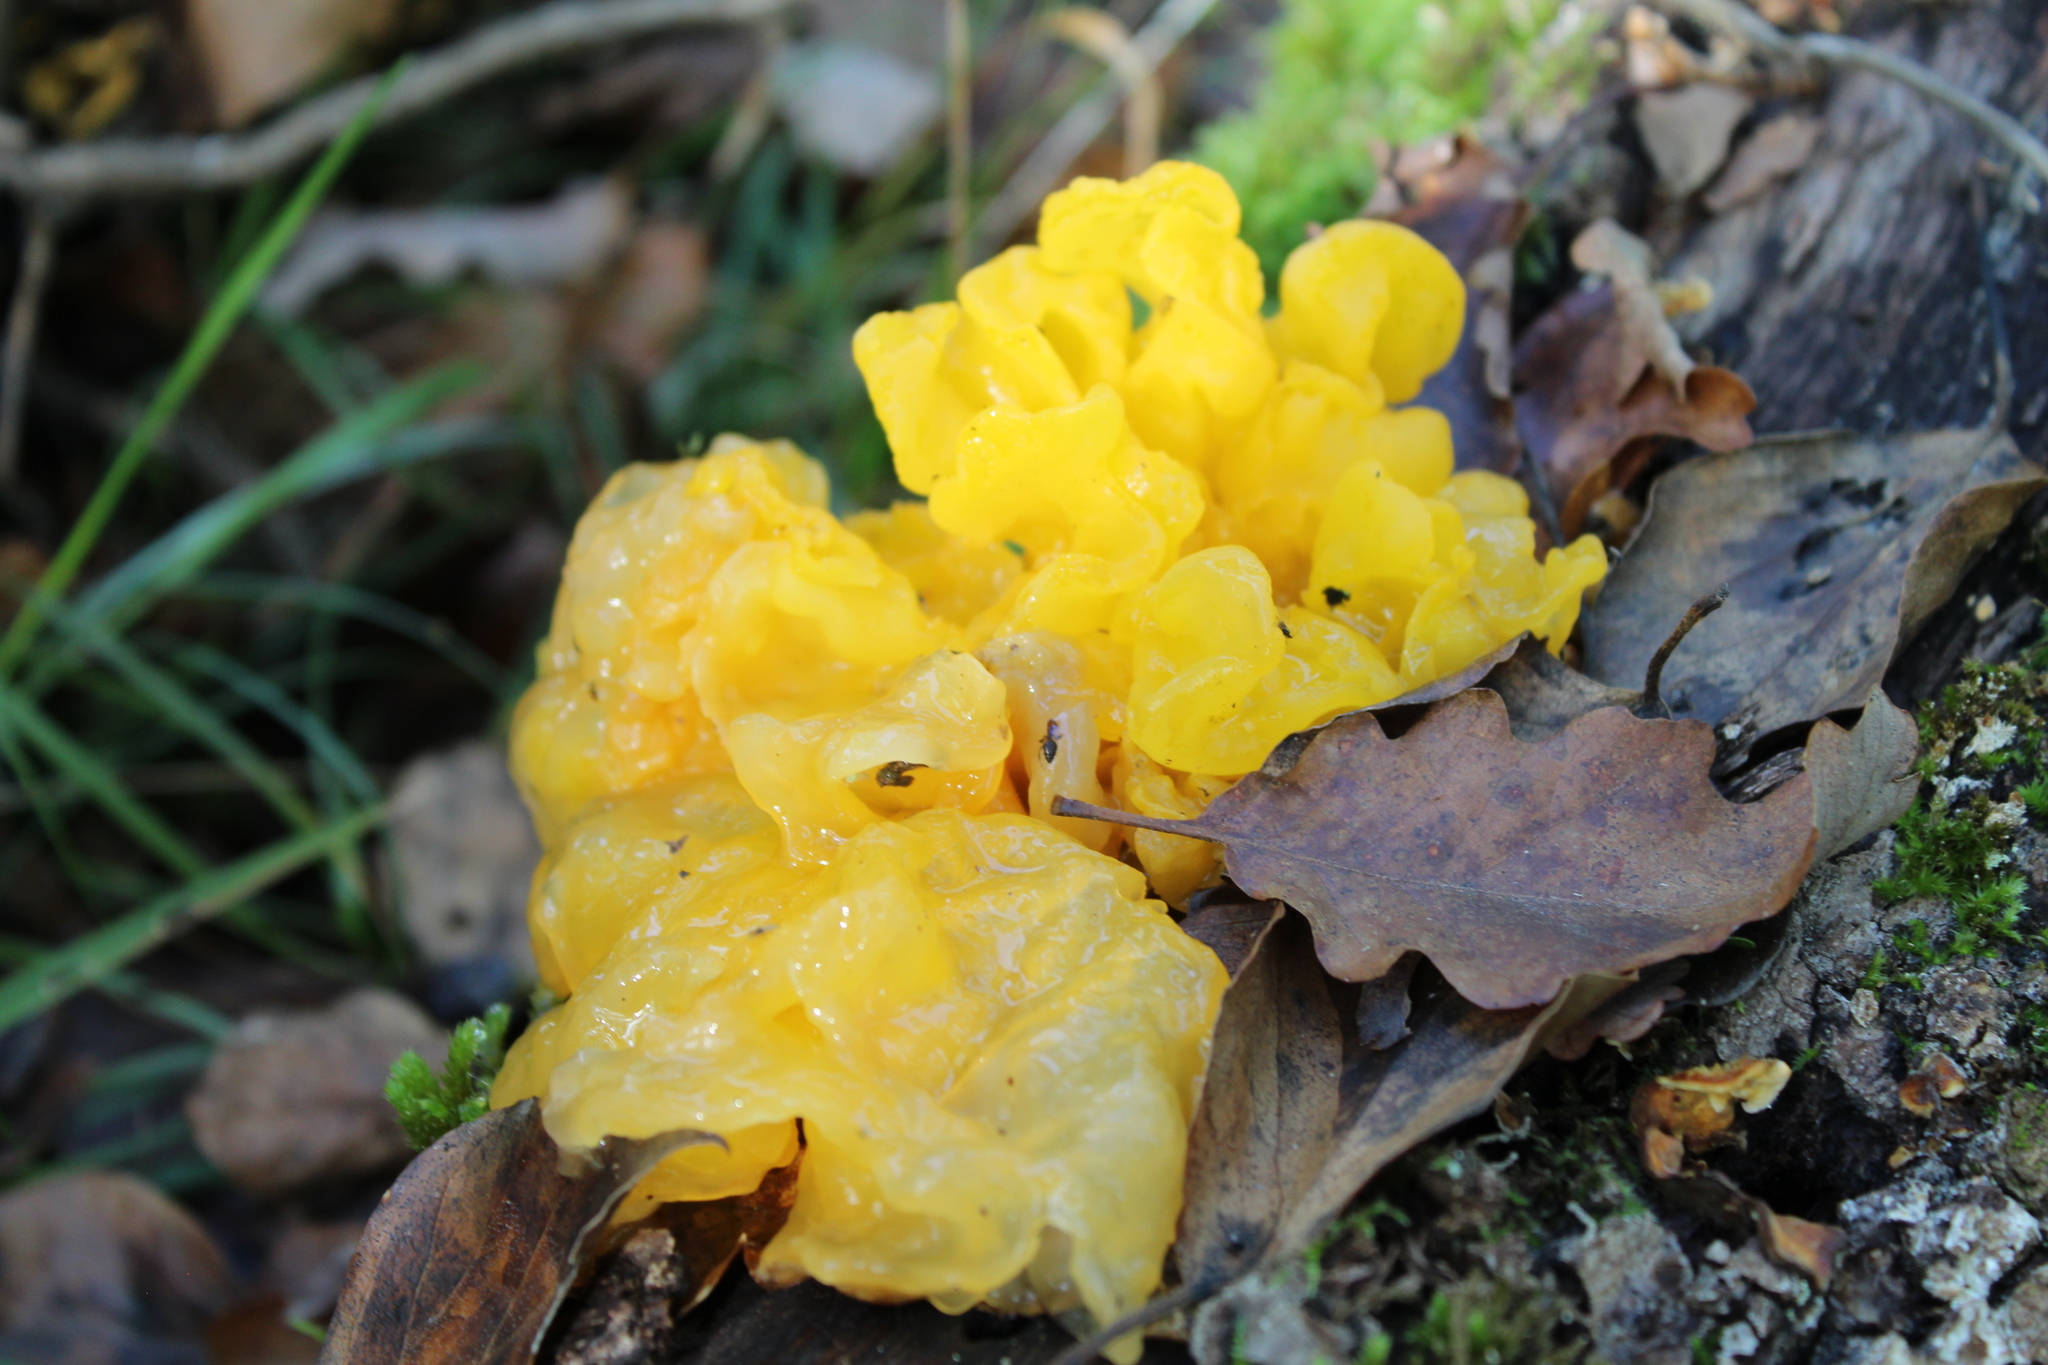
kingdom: Fungi
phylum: Basidiomycota
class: Tremellomycetes
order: Tremellales
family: Tremellaceae
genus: Tremella
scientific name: Tremella mesenterica
